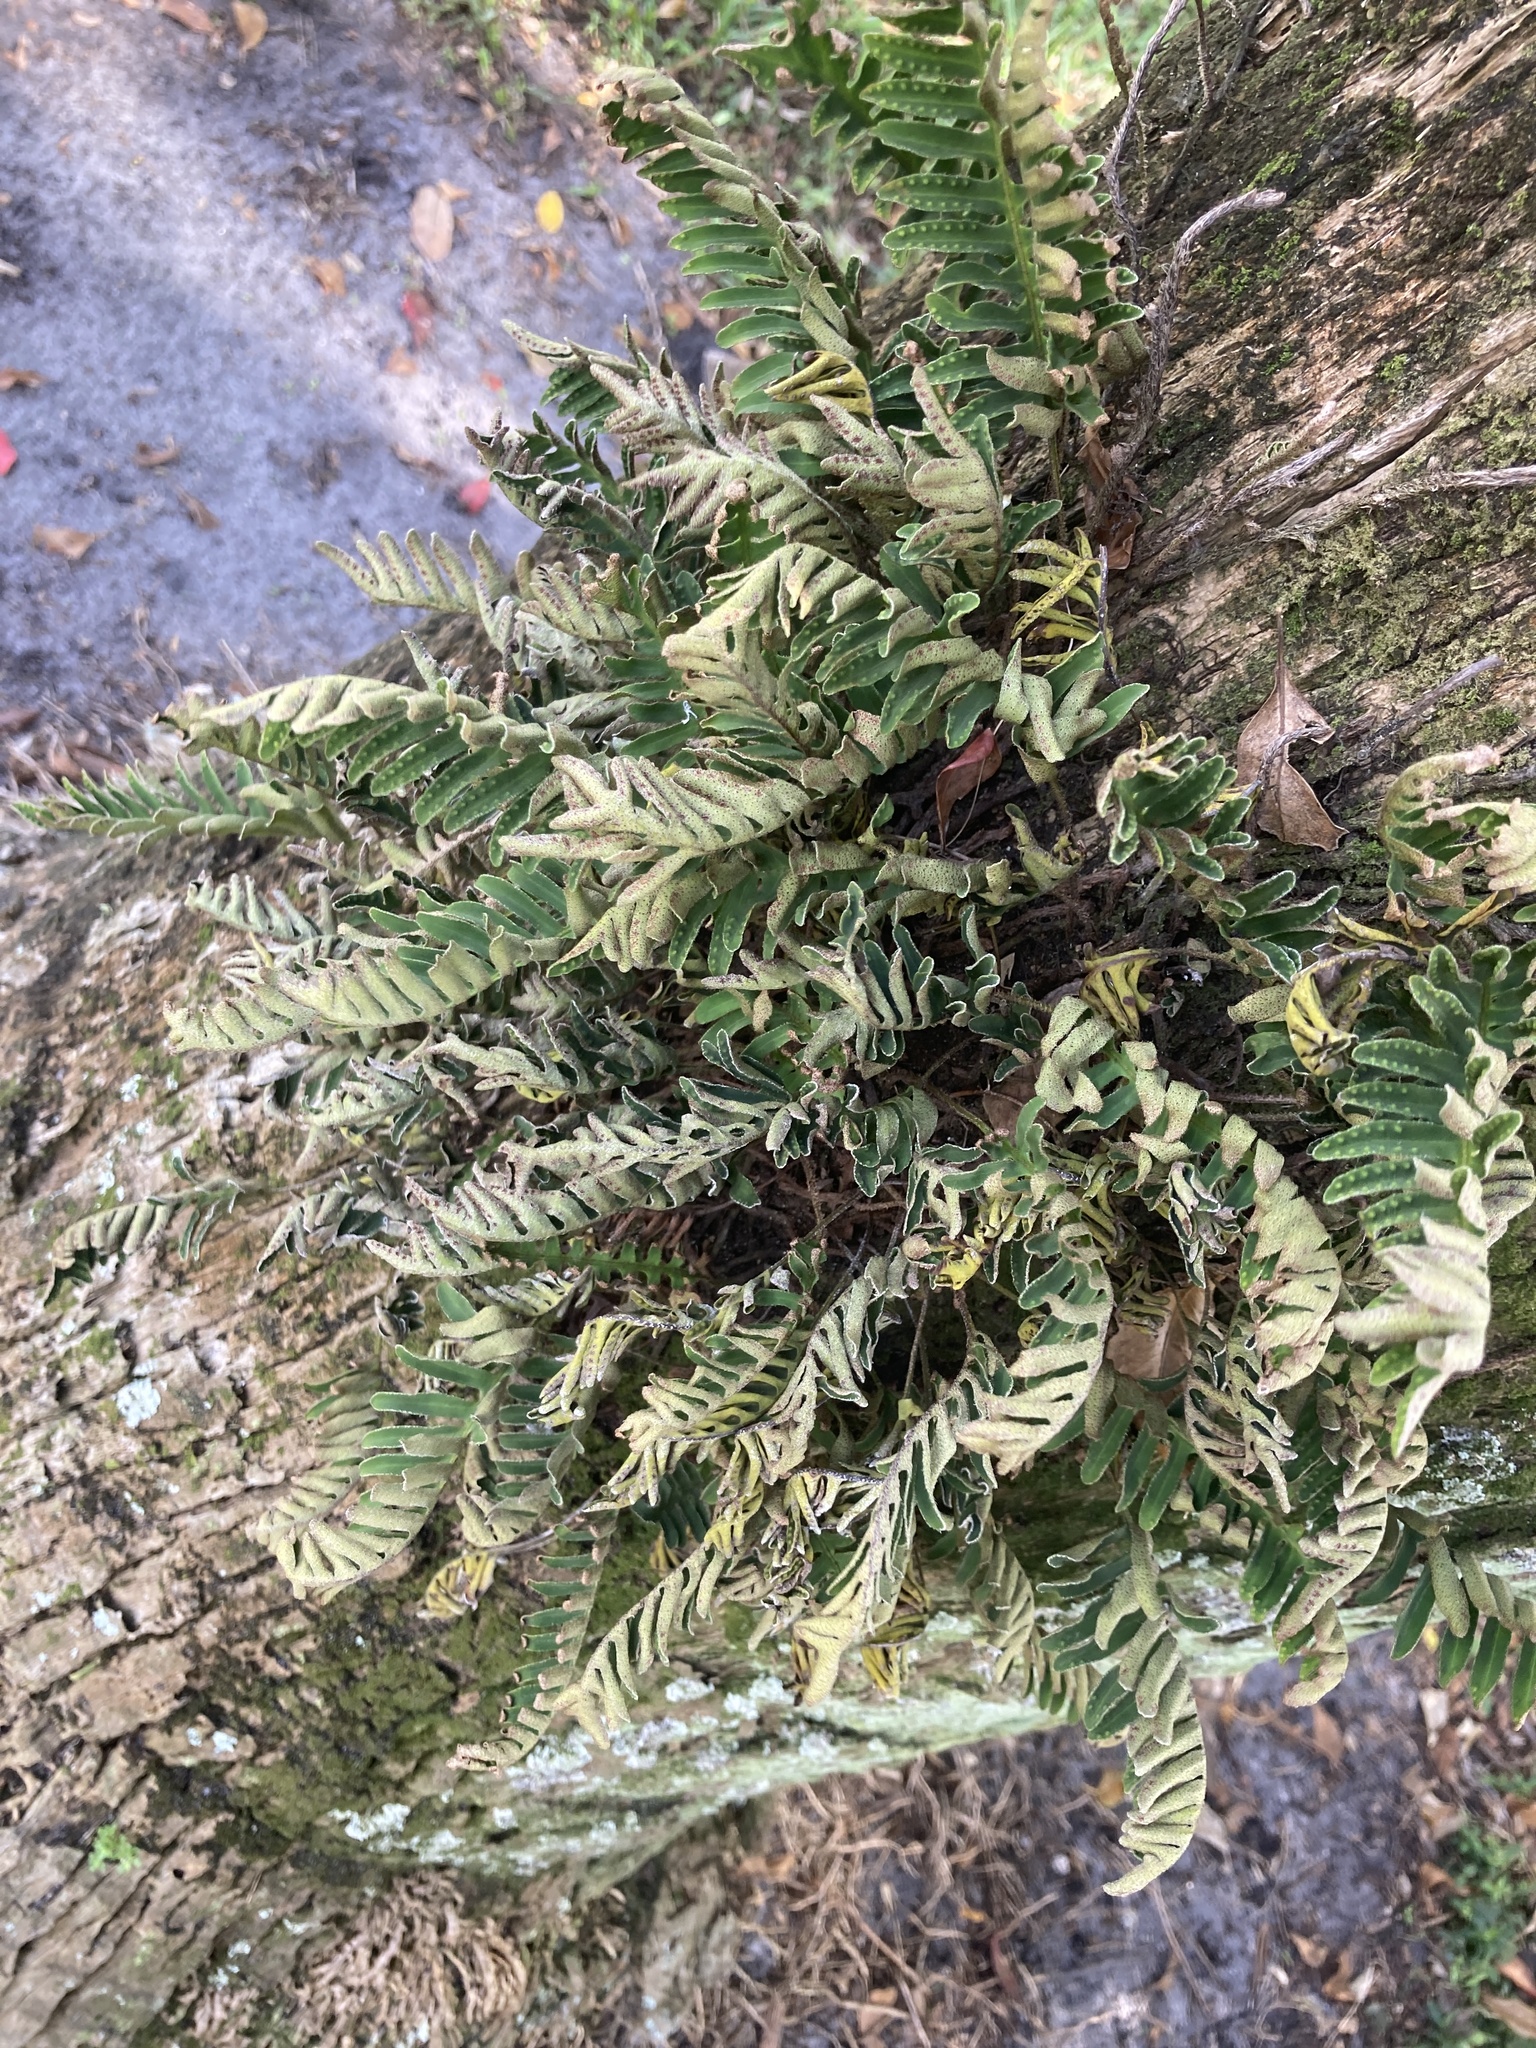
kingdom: Plantae
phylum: Tracheophyta
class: Polypodiopsida
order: Polypodiales
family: Polypodiaceae
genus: Pleopeltis
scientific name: Pleopeltis michauxiana
